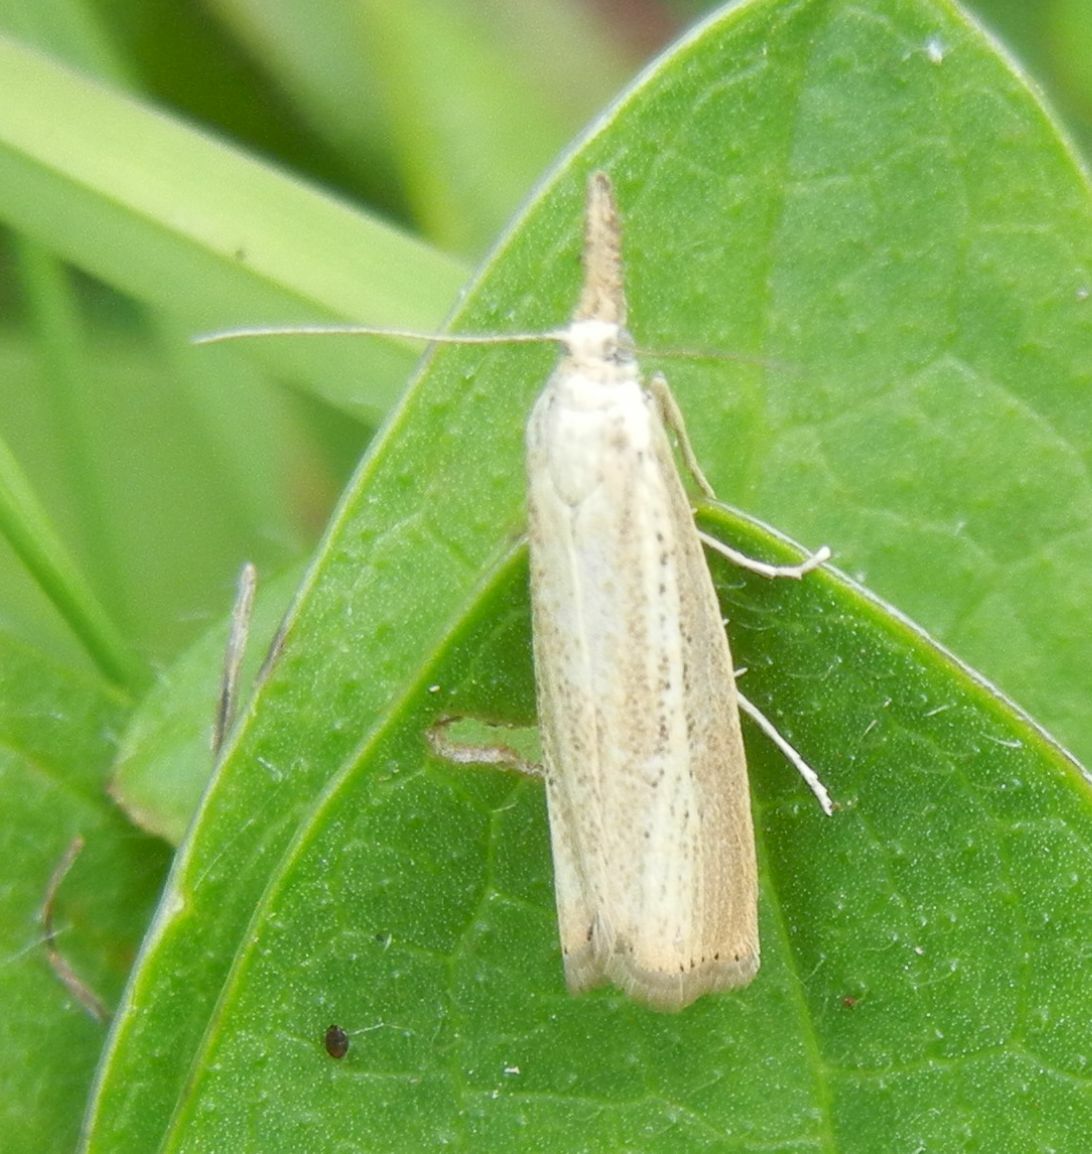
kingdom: Animalia
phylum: Arthropoda
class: Insecta
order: Lepidoptera
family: Crambidae
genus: Agriphila
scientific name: Agriphila straminella
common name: Straw grass-veneer
